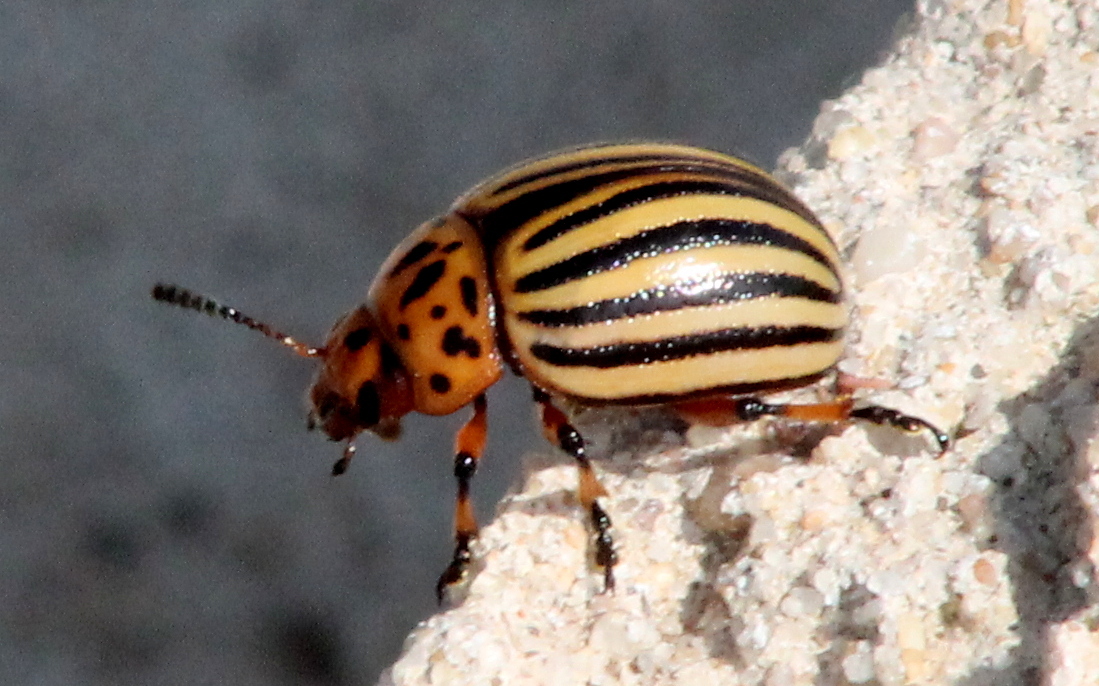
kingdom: Animalia
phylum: Arthropoda
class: Insecta
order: Coleoptera
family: Chrysomelidae
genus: Leptinotarsa
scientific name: Leptinotarsa decemlineata
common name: Colorado potato beetle
